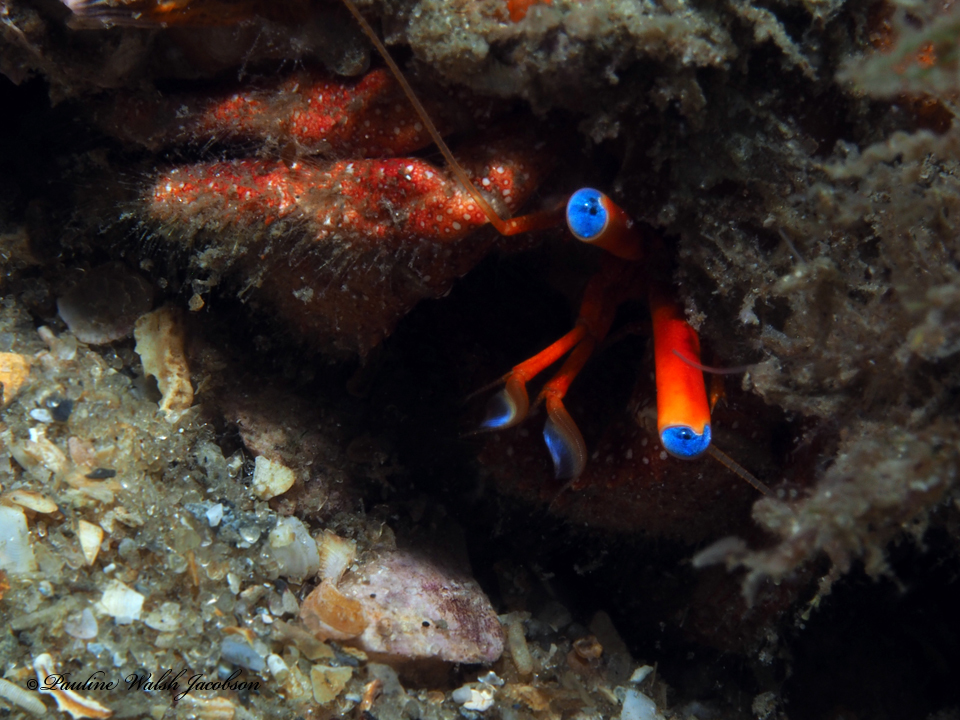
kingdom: Animalia
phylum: Arthropoda
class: Malacostraca
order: Decapoda
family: Diogenidae
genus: Paguristes
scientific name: Paguristes sericeus
